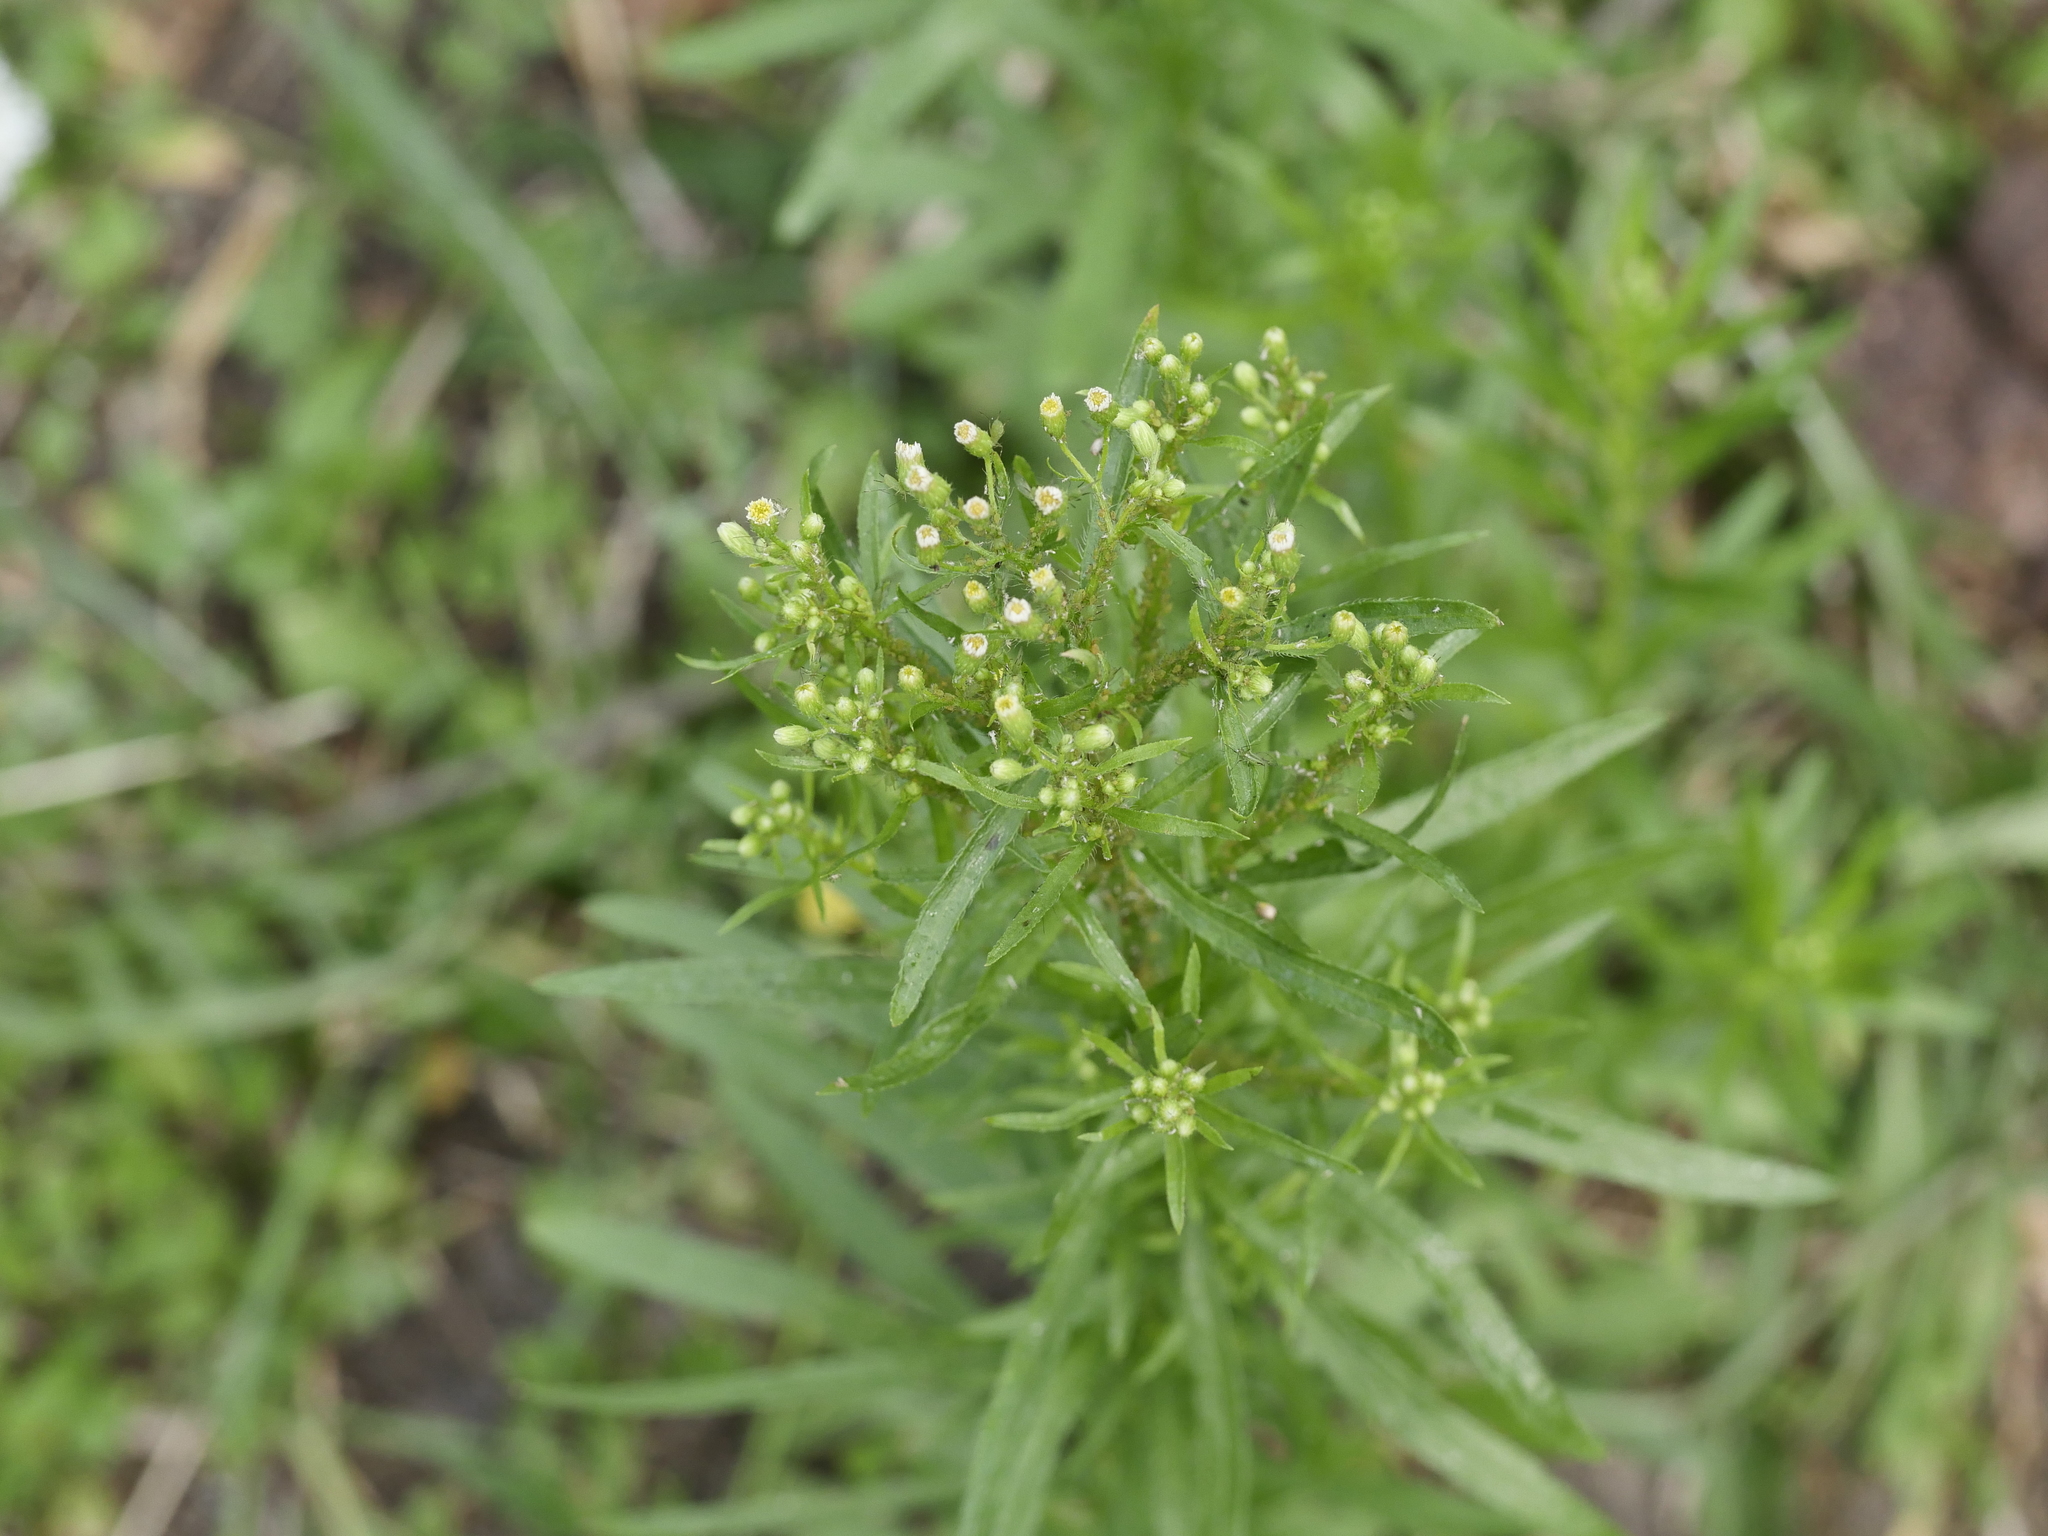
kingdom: Plantae
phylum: Tracheophyta
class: Magnoliopsida
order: Asterales
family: Asteraceae
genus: Erigeron
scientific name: Erigeron canadensis
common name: Canadian fleabane
